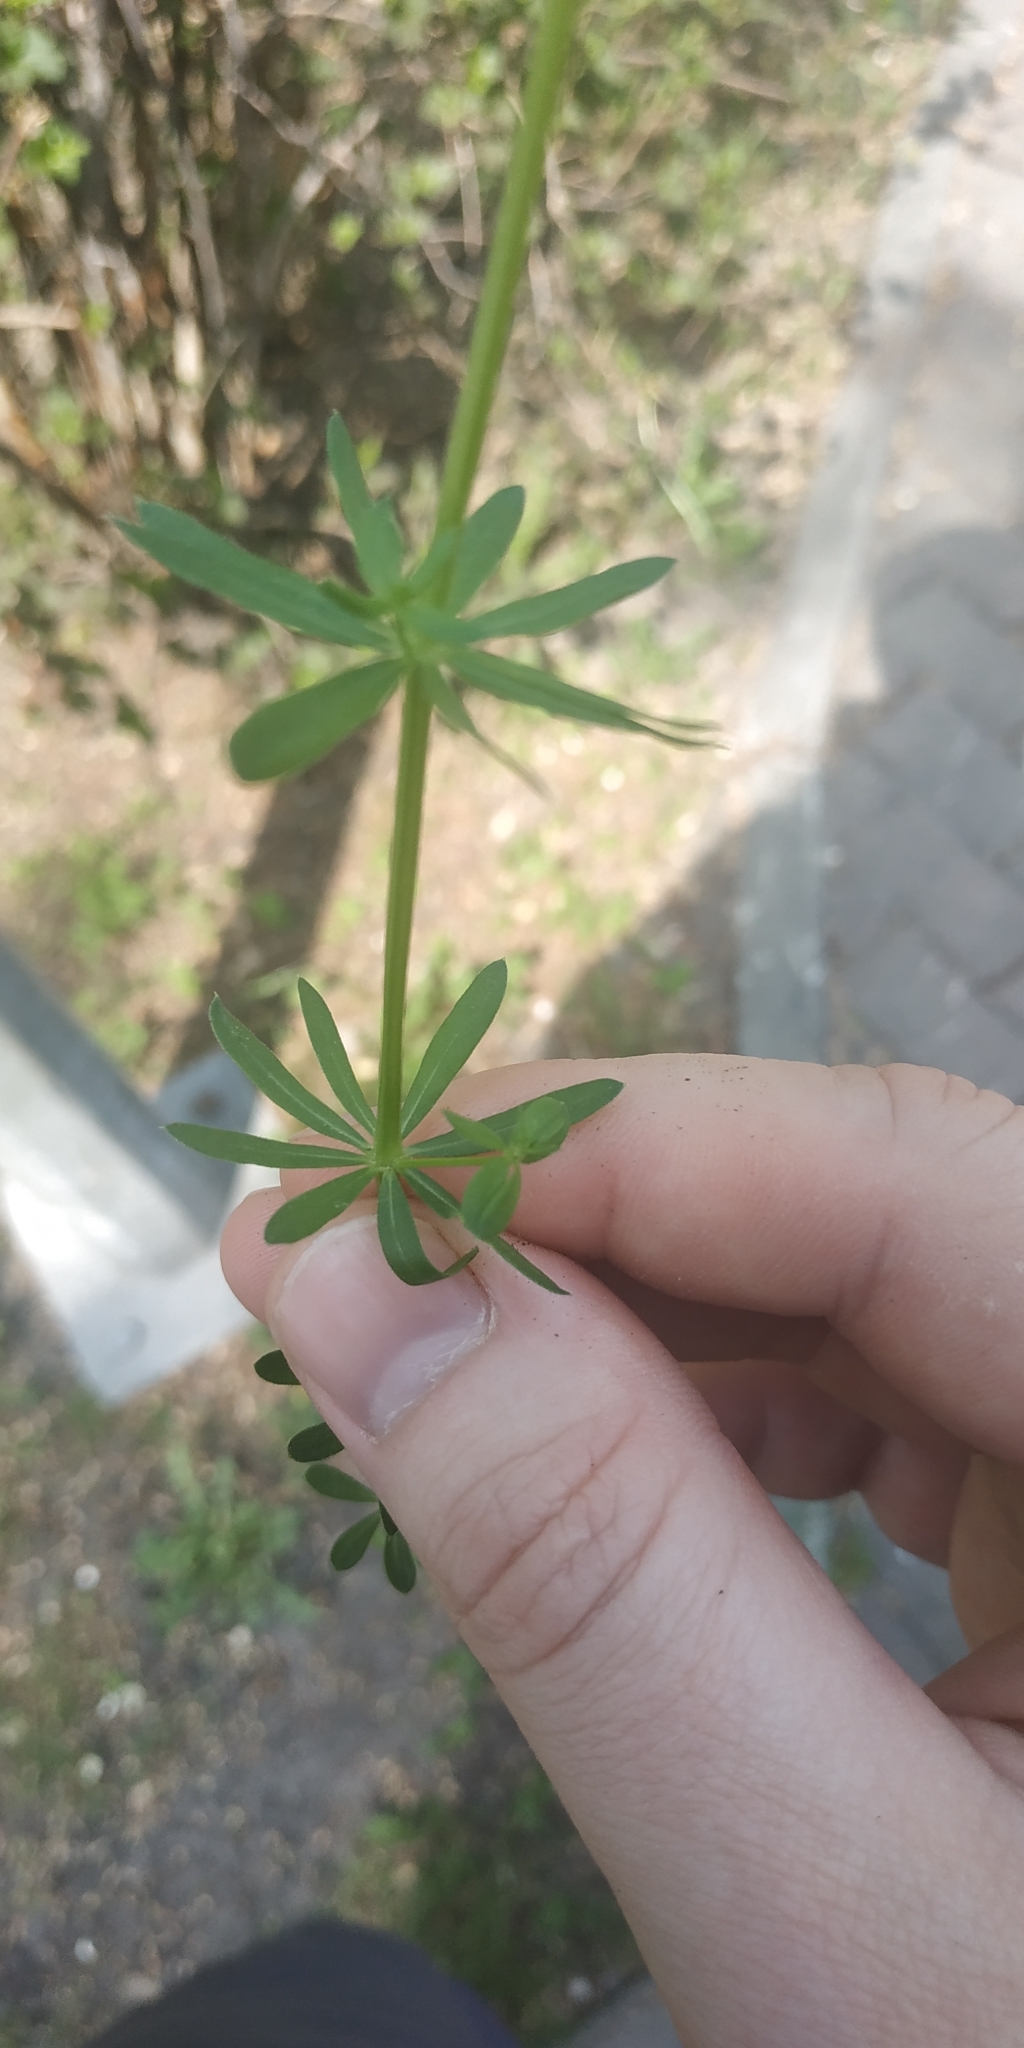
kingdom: Plantae
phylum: Tracheophyta
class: Magnoliopsida
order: Gentianales
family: Rubiaceae
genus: Galium
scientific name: Galium mollugo
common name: Hedge bedstraw
